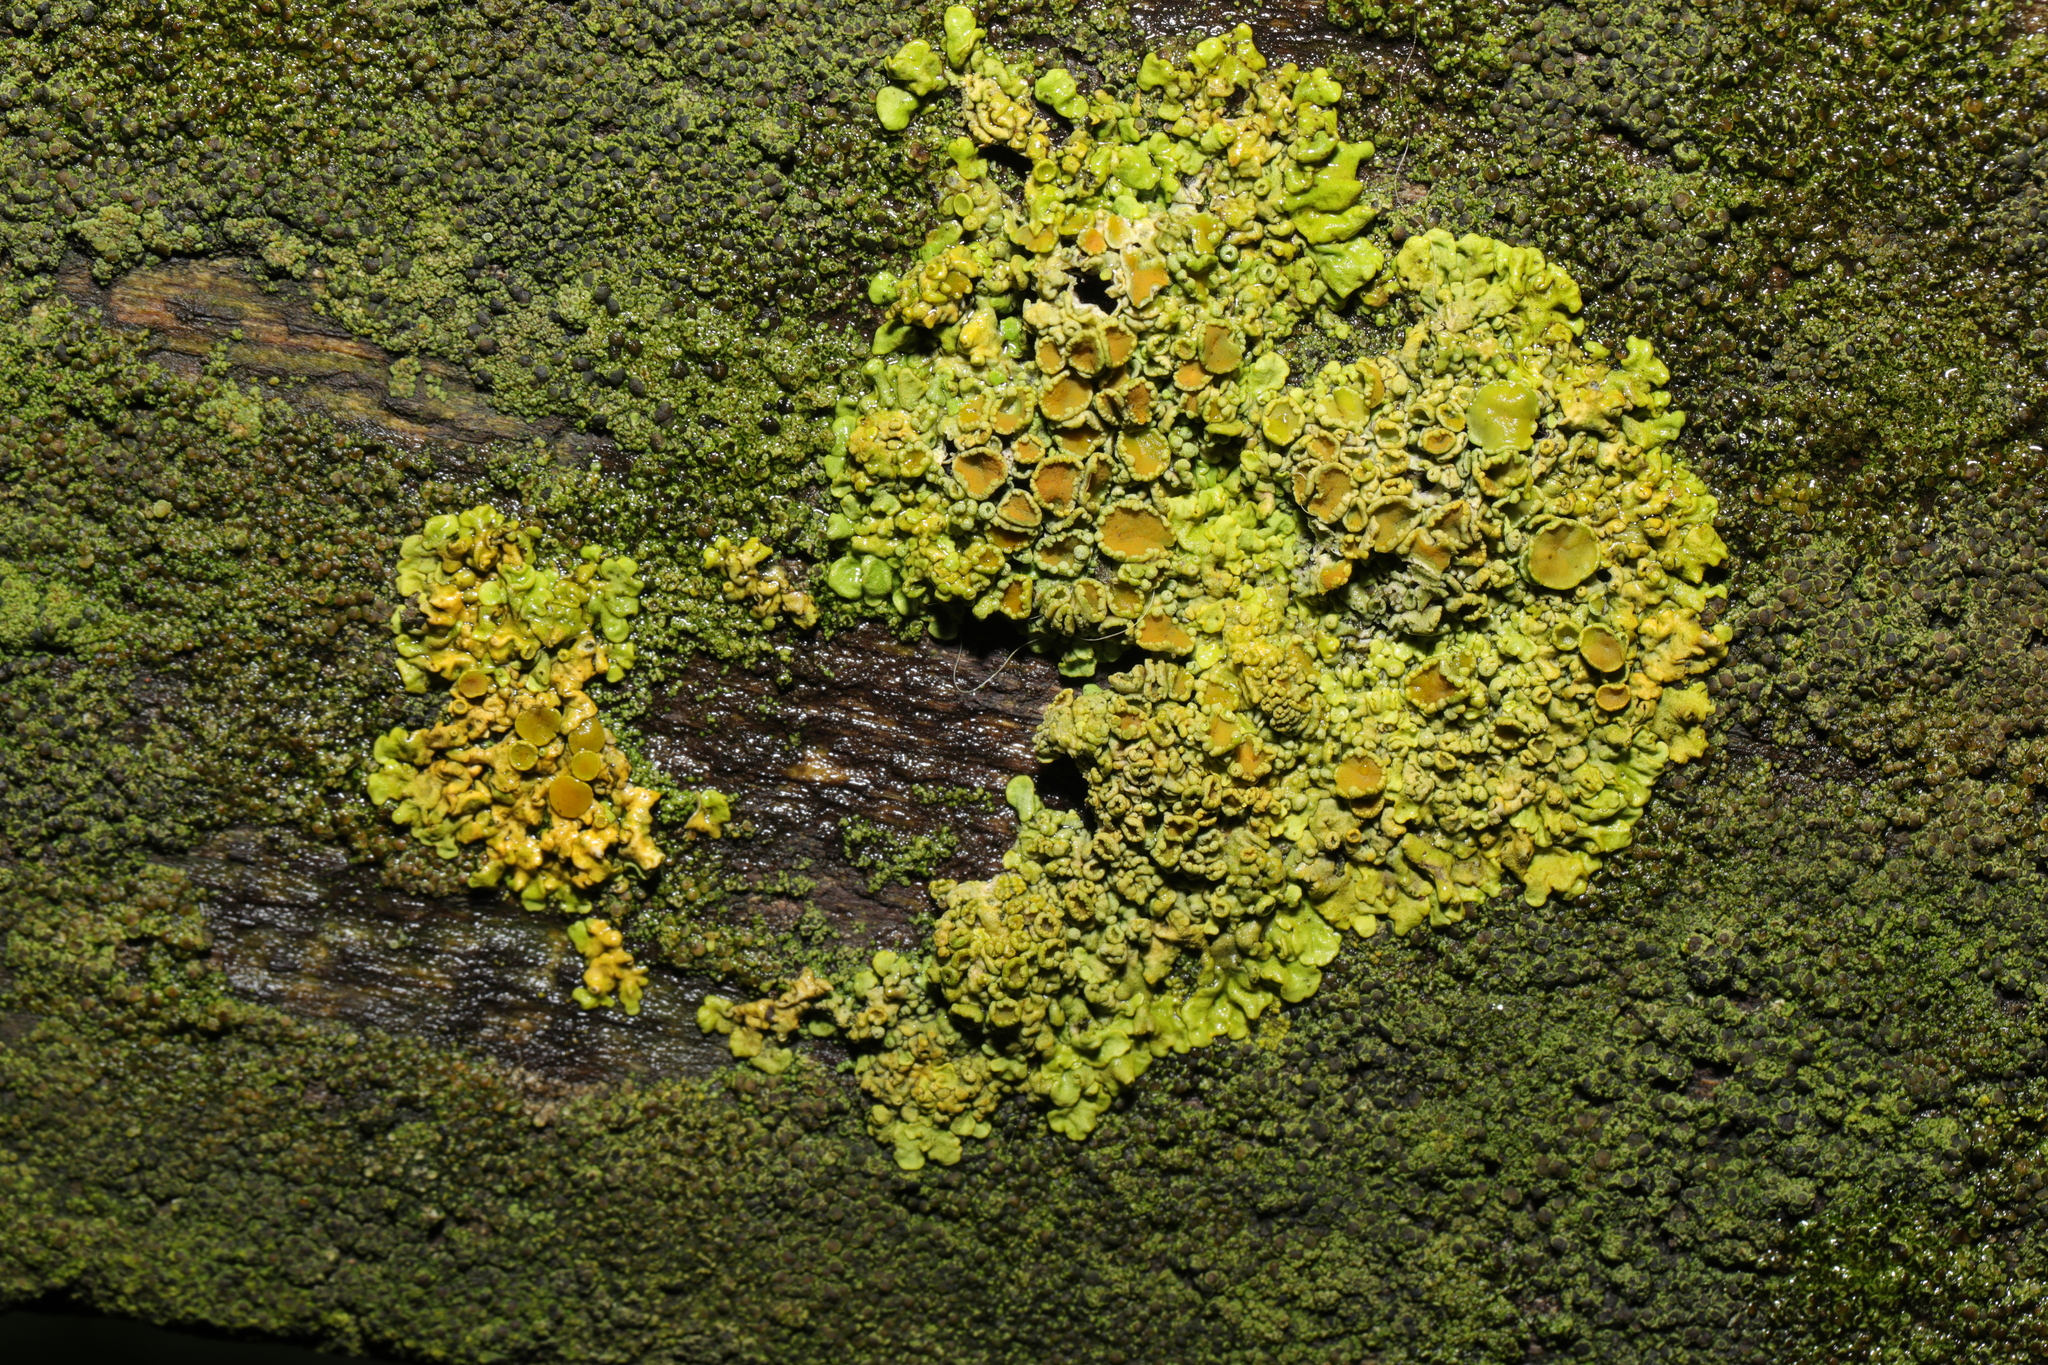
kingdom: Fungi
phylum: Ascomycota
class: Lecanoromycetes
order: Teloschistales
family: Teloschistaceae
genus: Xanthoria
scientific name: Xanthoria parietina
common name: Common orange lichen
